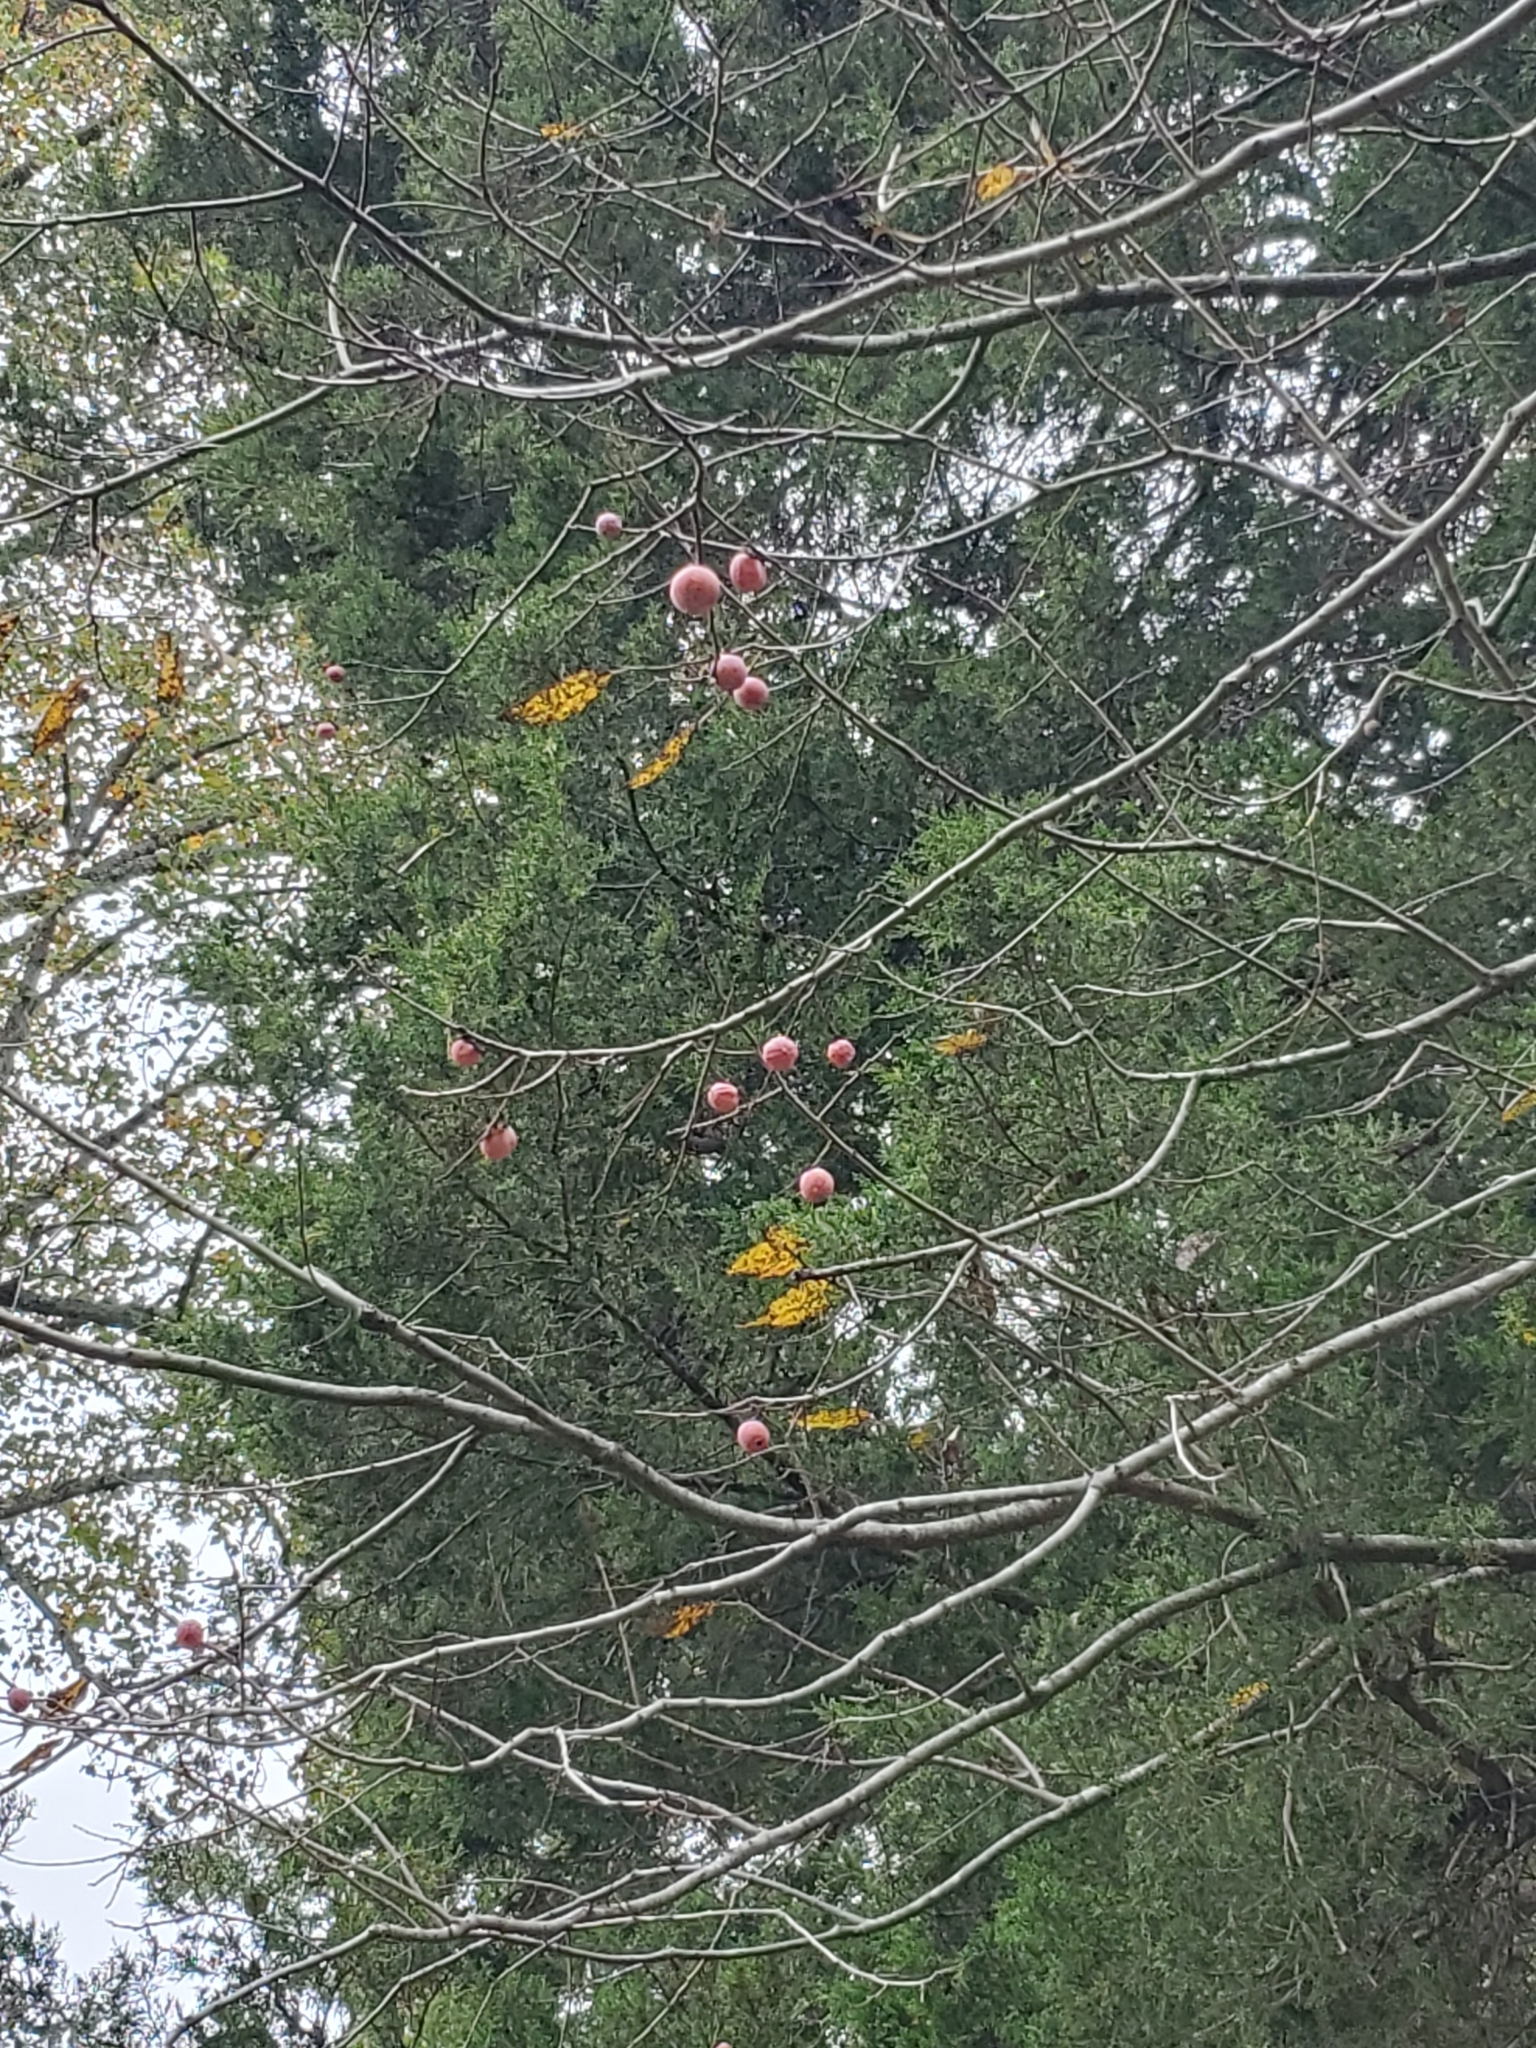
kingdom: Plantae
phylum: Tracheophyta
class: Magnoliopsida
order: Ericales
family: Ebenaceae
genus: Diospyros
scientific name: Diospyros virginiana
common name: Persimmon
